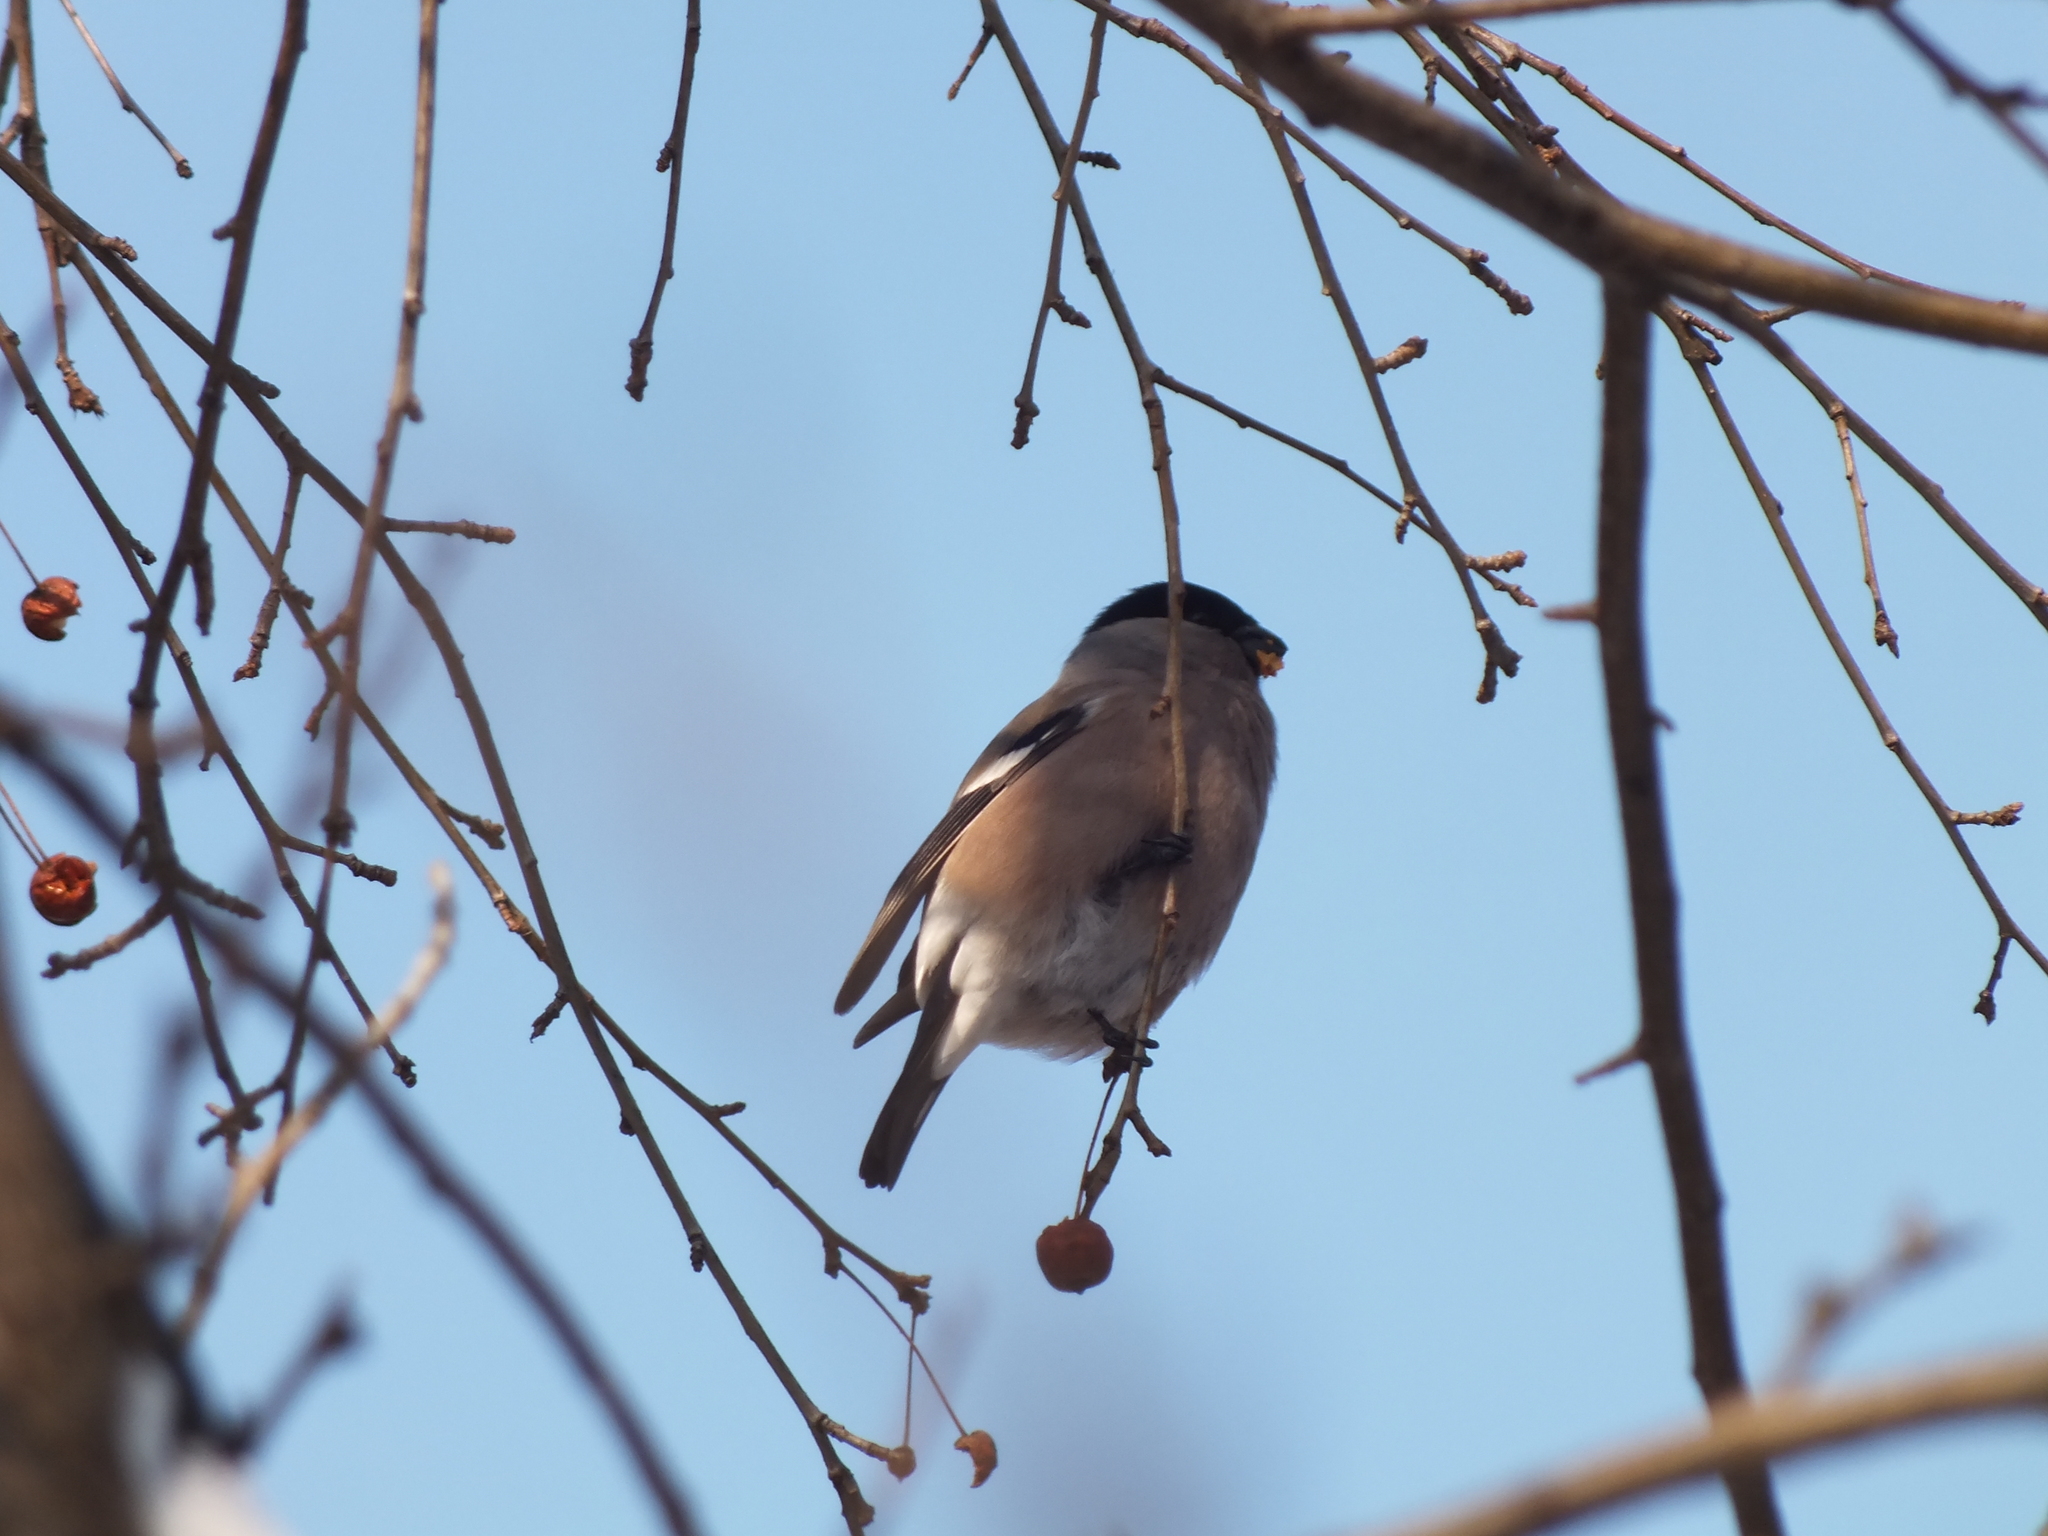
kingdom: Animalia
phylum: Chordata
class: Aves
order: Passeriformes
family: Fringillidae
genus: Pyrrhula
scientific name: Pyrrhula pyrrhula
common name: Eurasian bullfinch
